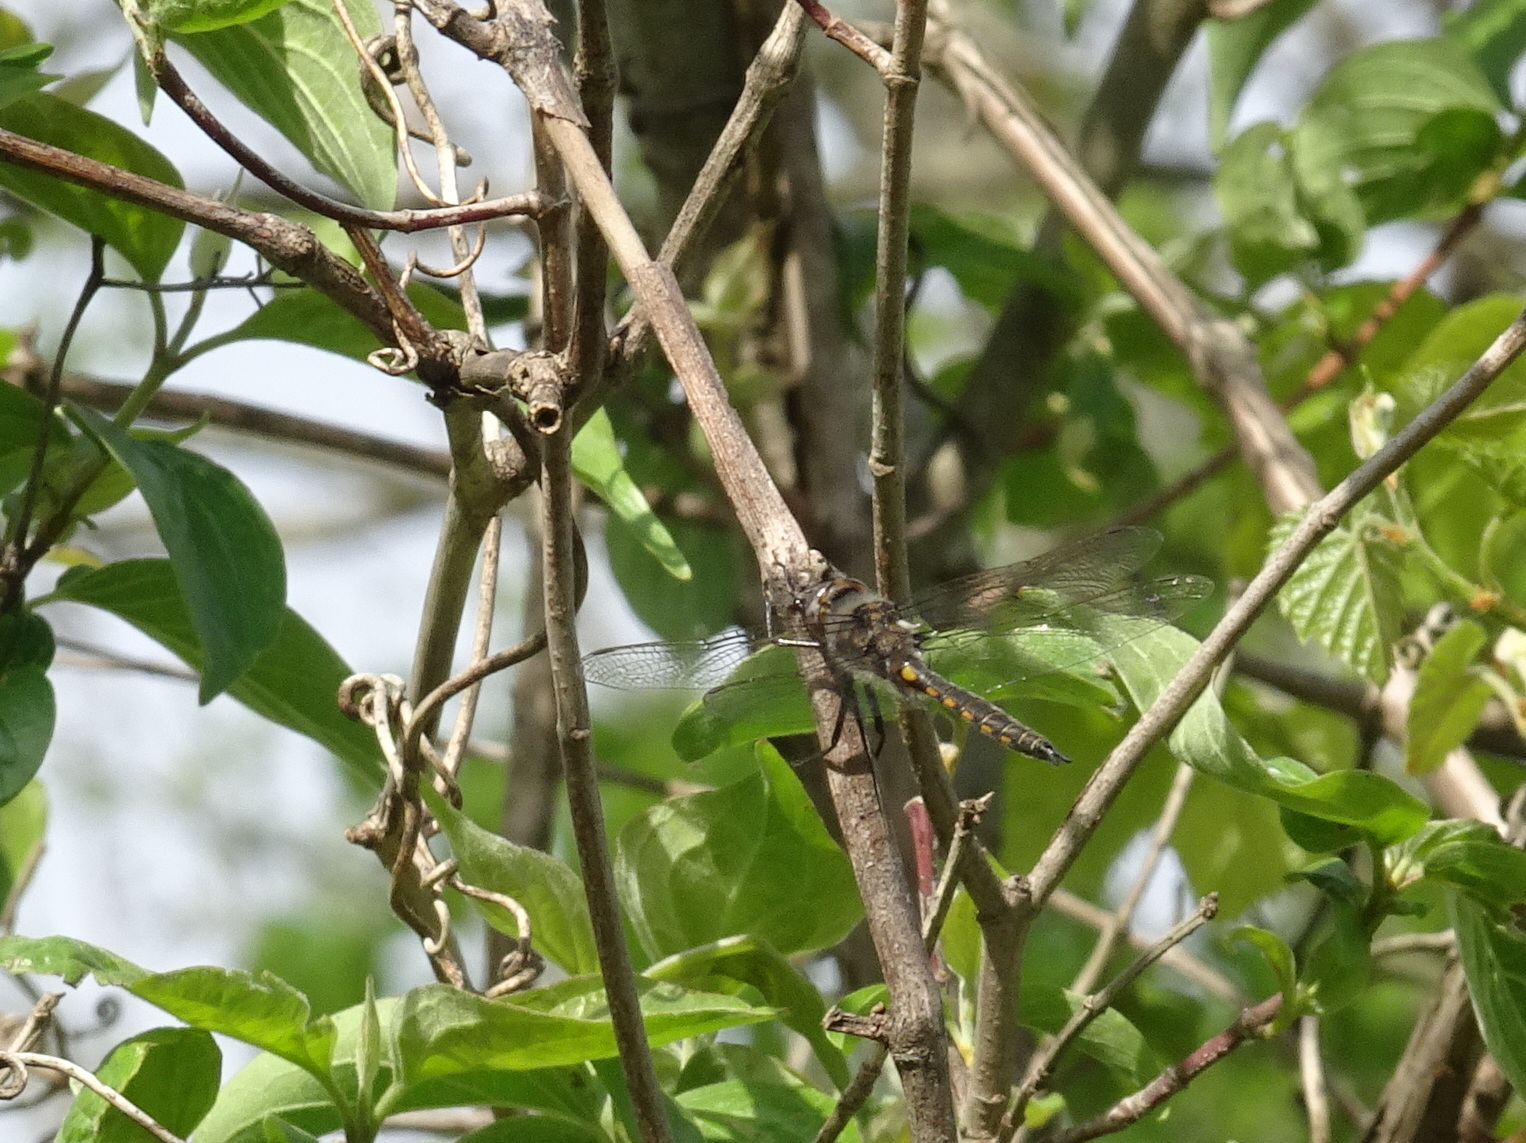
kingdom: Animalia
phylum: Arthropoda
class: Insecta
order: Odonata
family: Corduliidae
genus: Epitheca
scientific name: Epitheca cynosura
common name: Common baskettail
